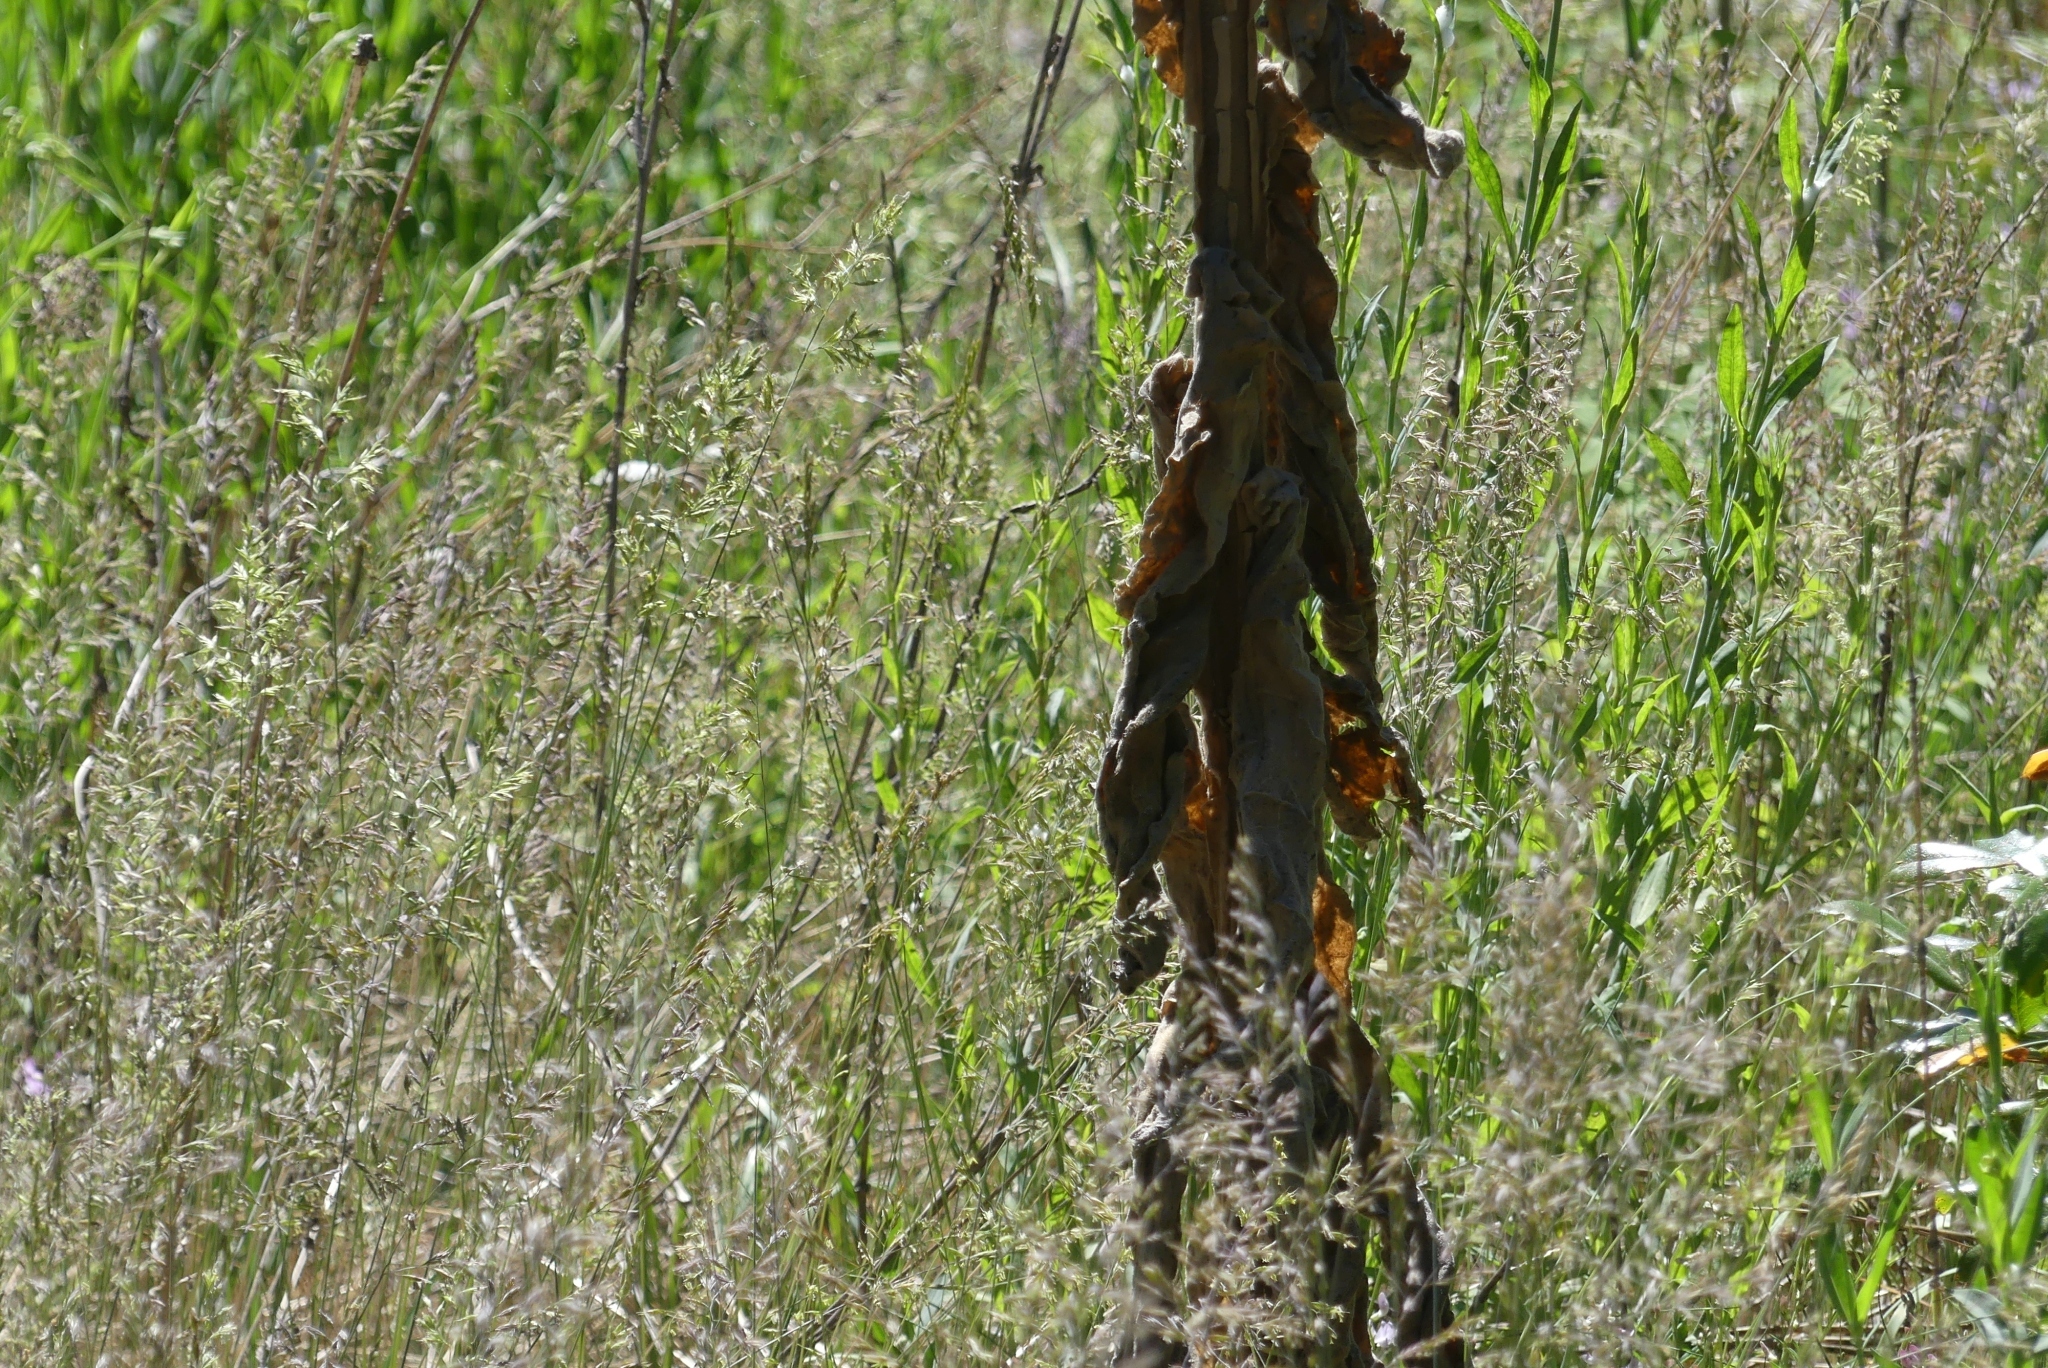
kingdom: Plantae
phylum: Tracheophyta
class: Magnoliopsida
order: Lamiales
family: Scrophulariaceae
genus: Verbascum
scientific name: Verbascum thapsus
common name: Common mullein
